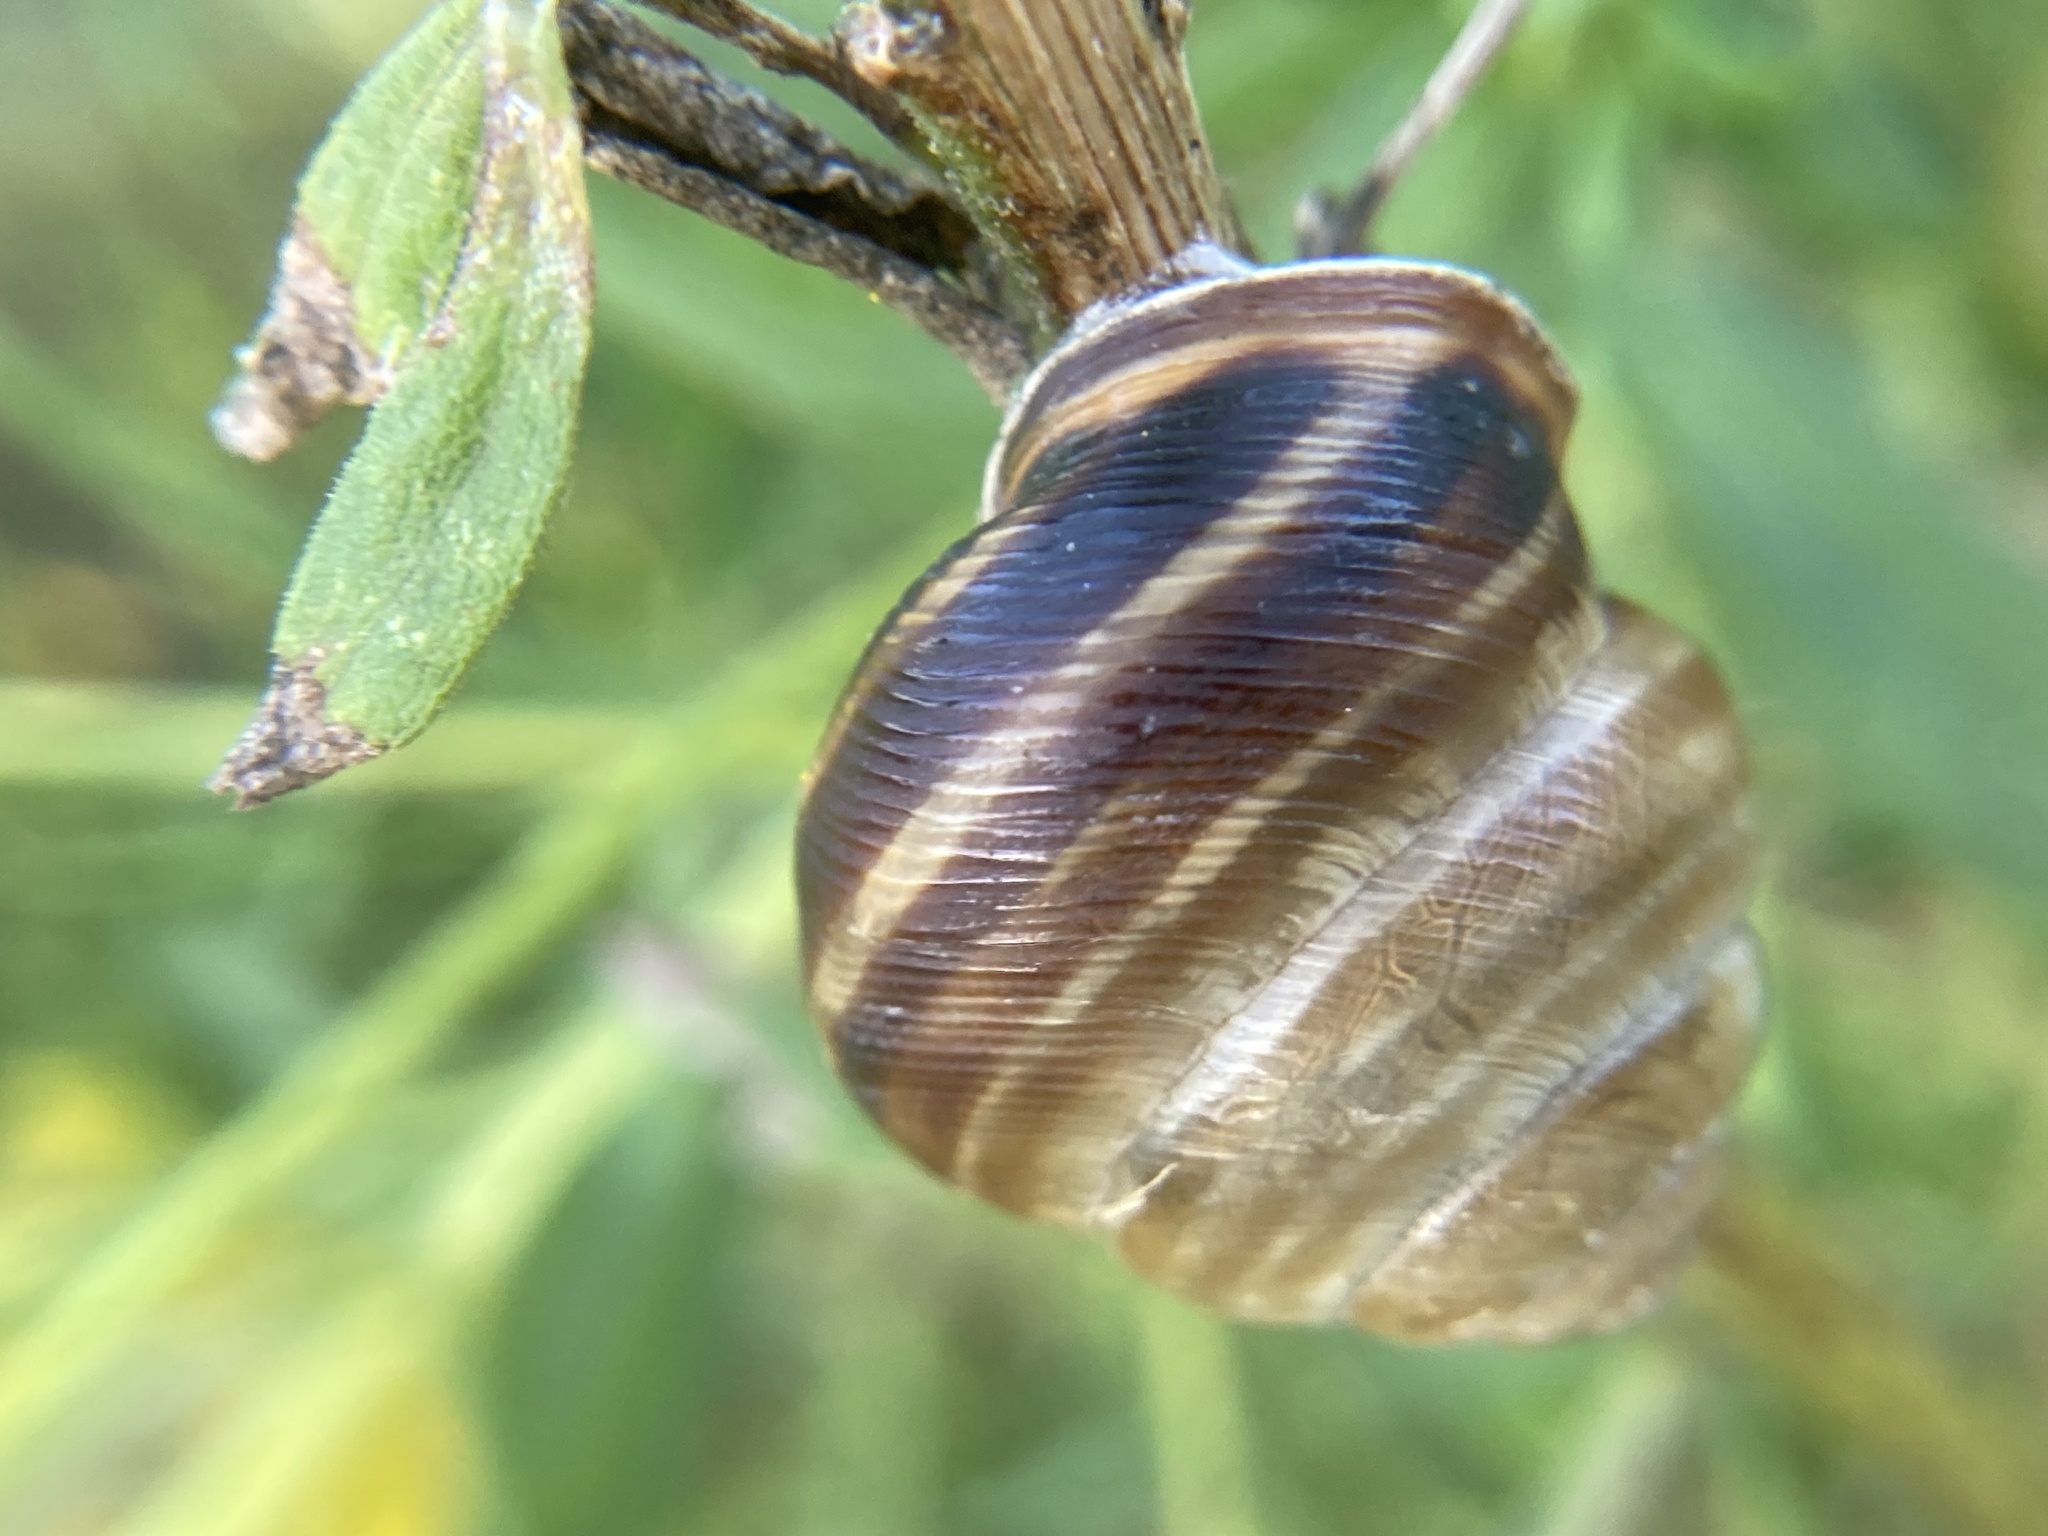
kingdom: Animalia
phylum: Mollusca
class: Gastropoda
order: Stylommatophora
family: Helicidae
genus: Caucasotachea
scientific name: Caucasotachea vindobonensis
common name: European helicid land snail
